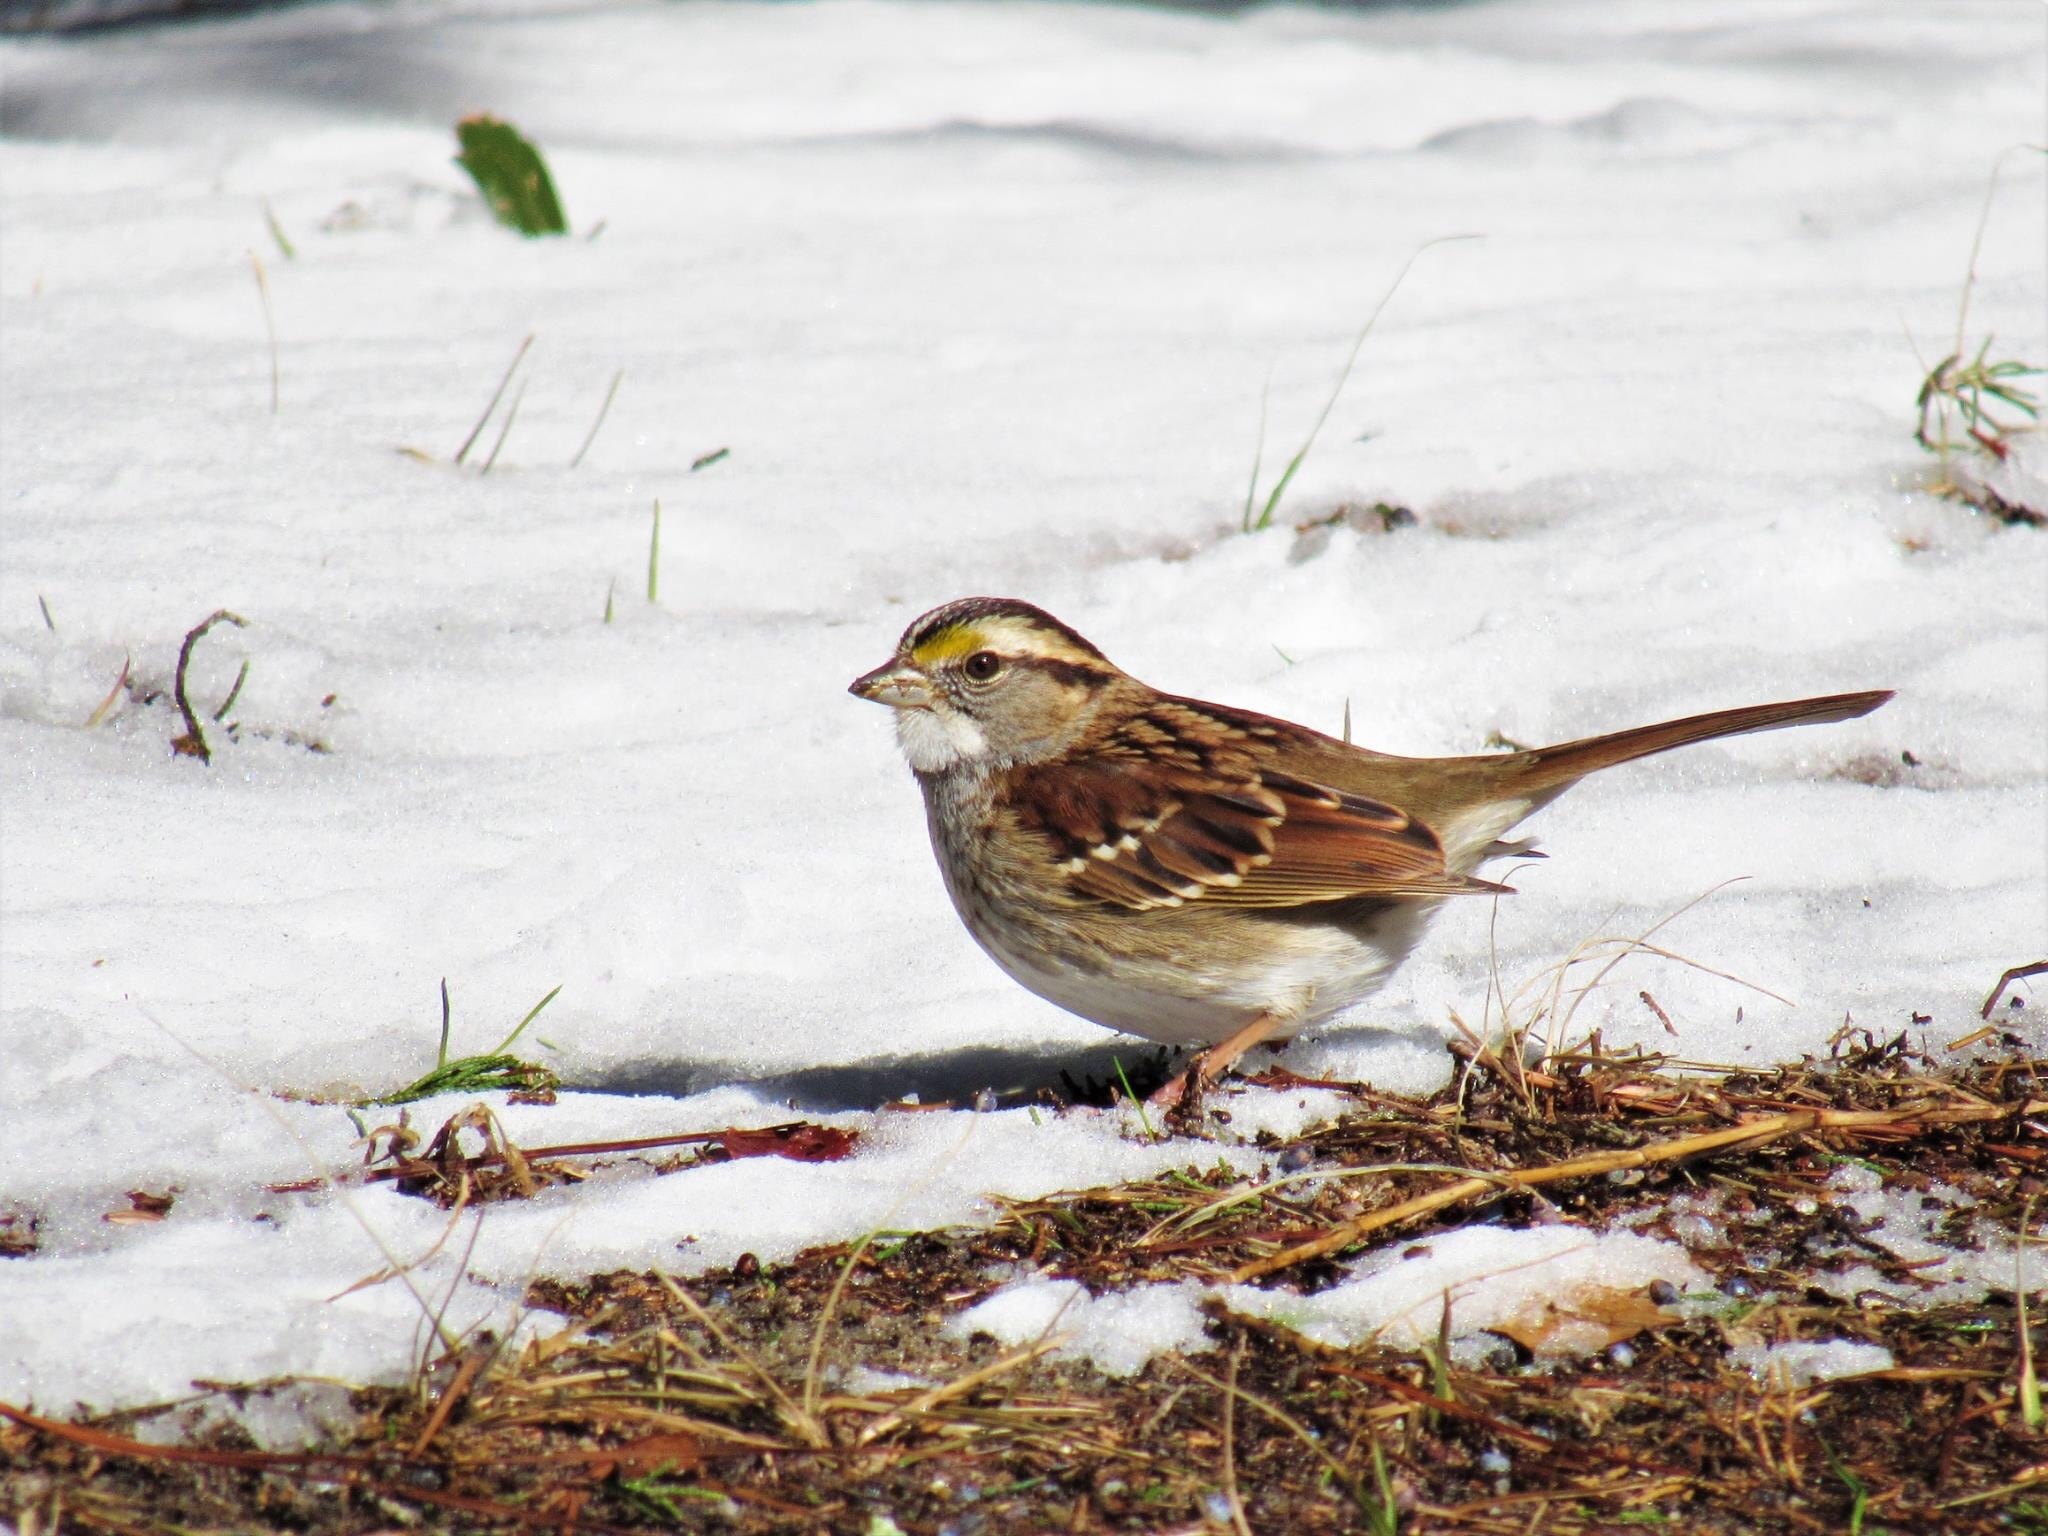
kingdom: Animalia
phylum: Chordata
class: Aves
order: Passeriformes
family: Passerellidae
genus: Zonotrichia
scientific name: Zonotrichia albicollis
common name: White-throated sparrow
